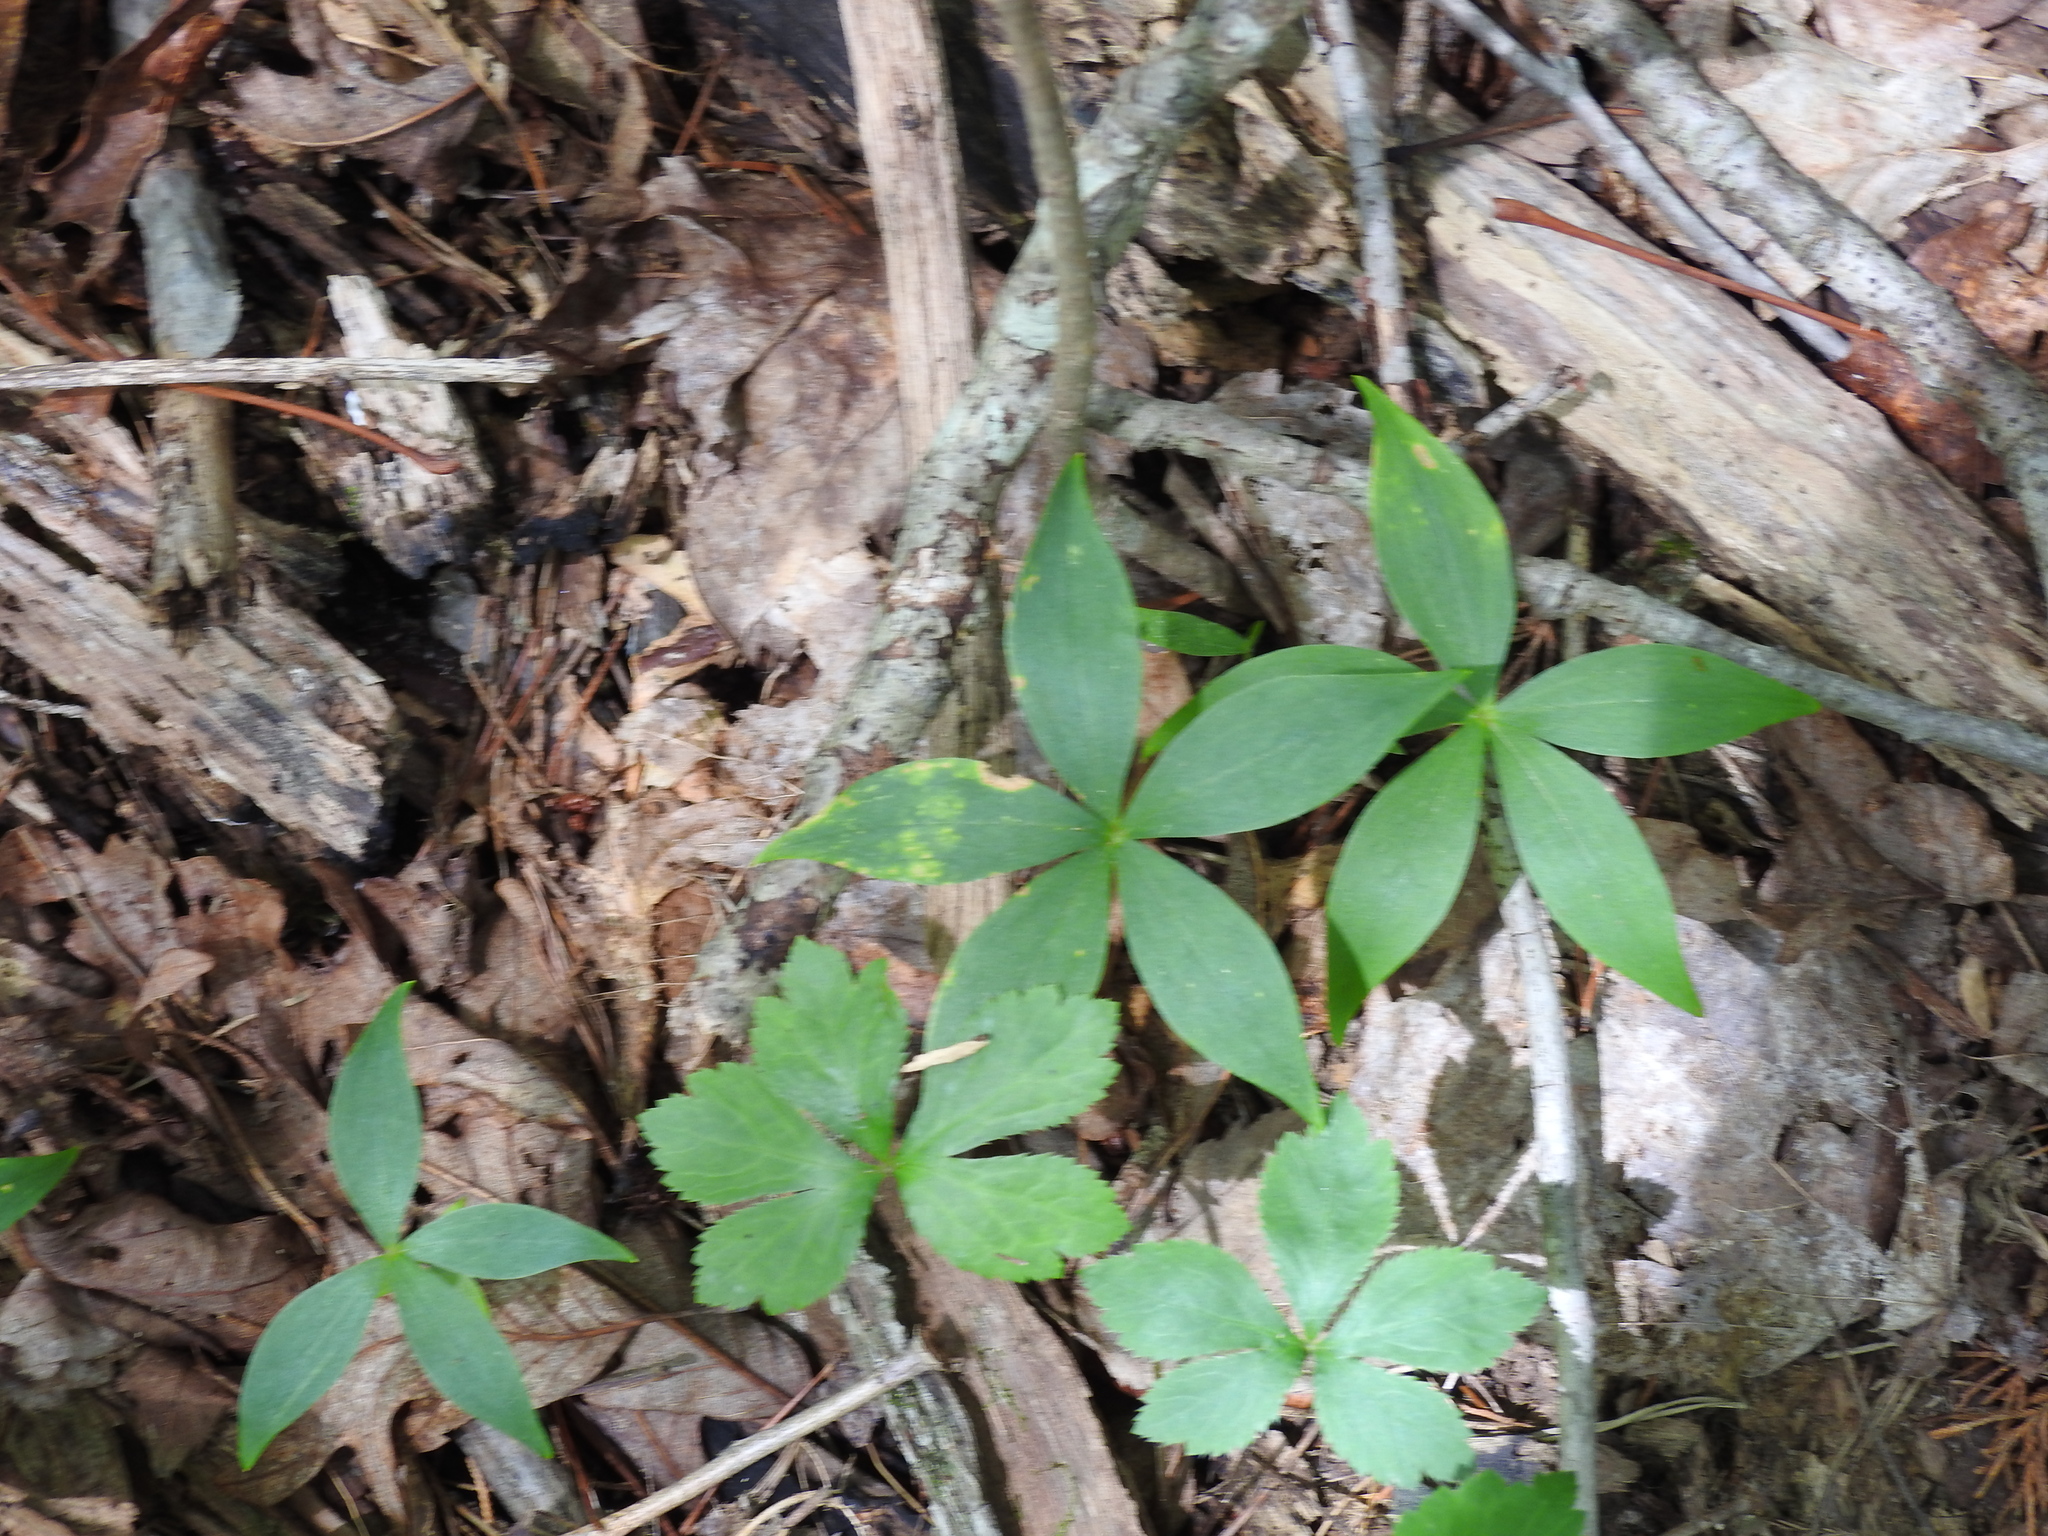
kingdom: Plantae
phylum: Tracheophyta
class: Liliopsida
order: Liliales
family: Liliaceae
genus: Medeola
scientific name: Medeola virginiana
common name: Indian cucumber-root
